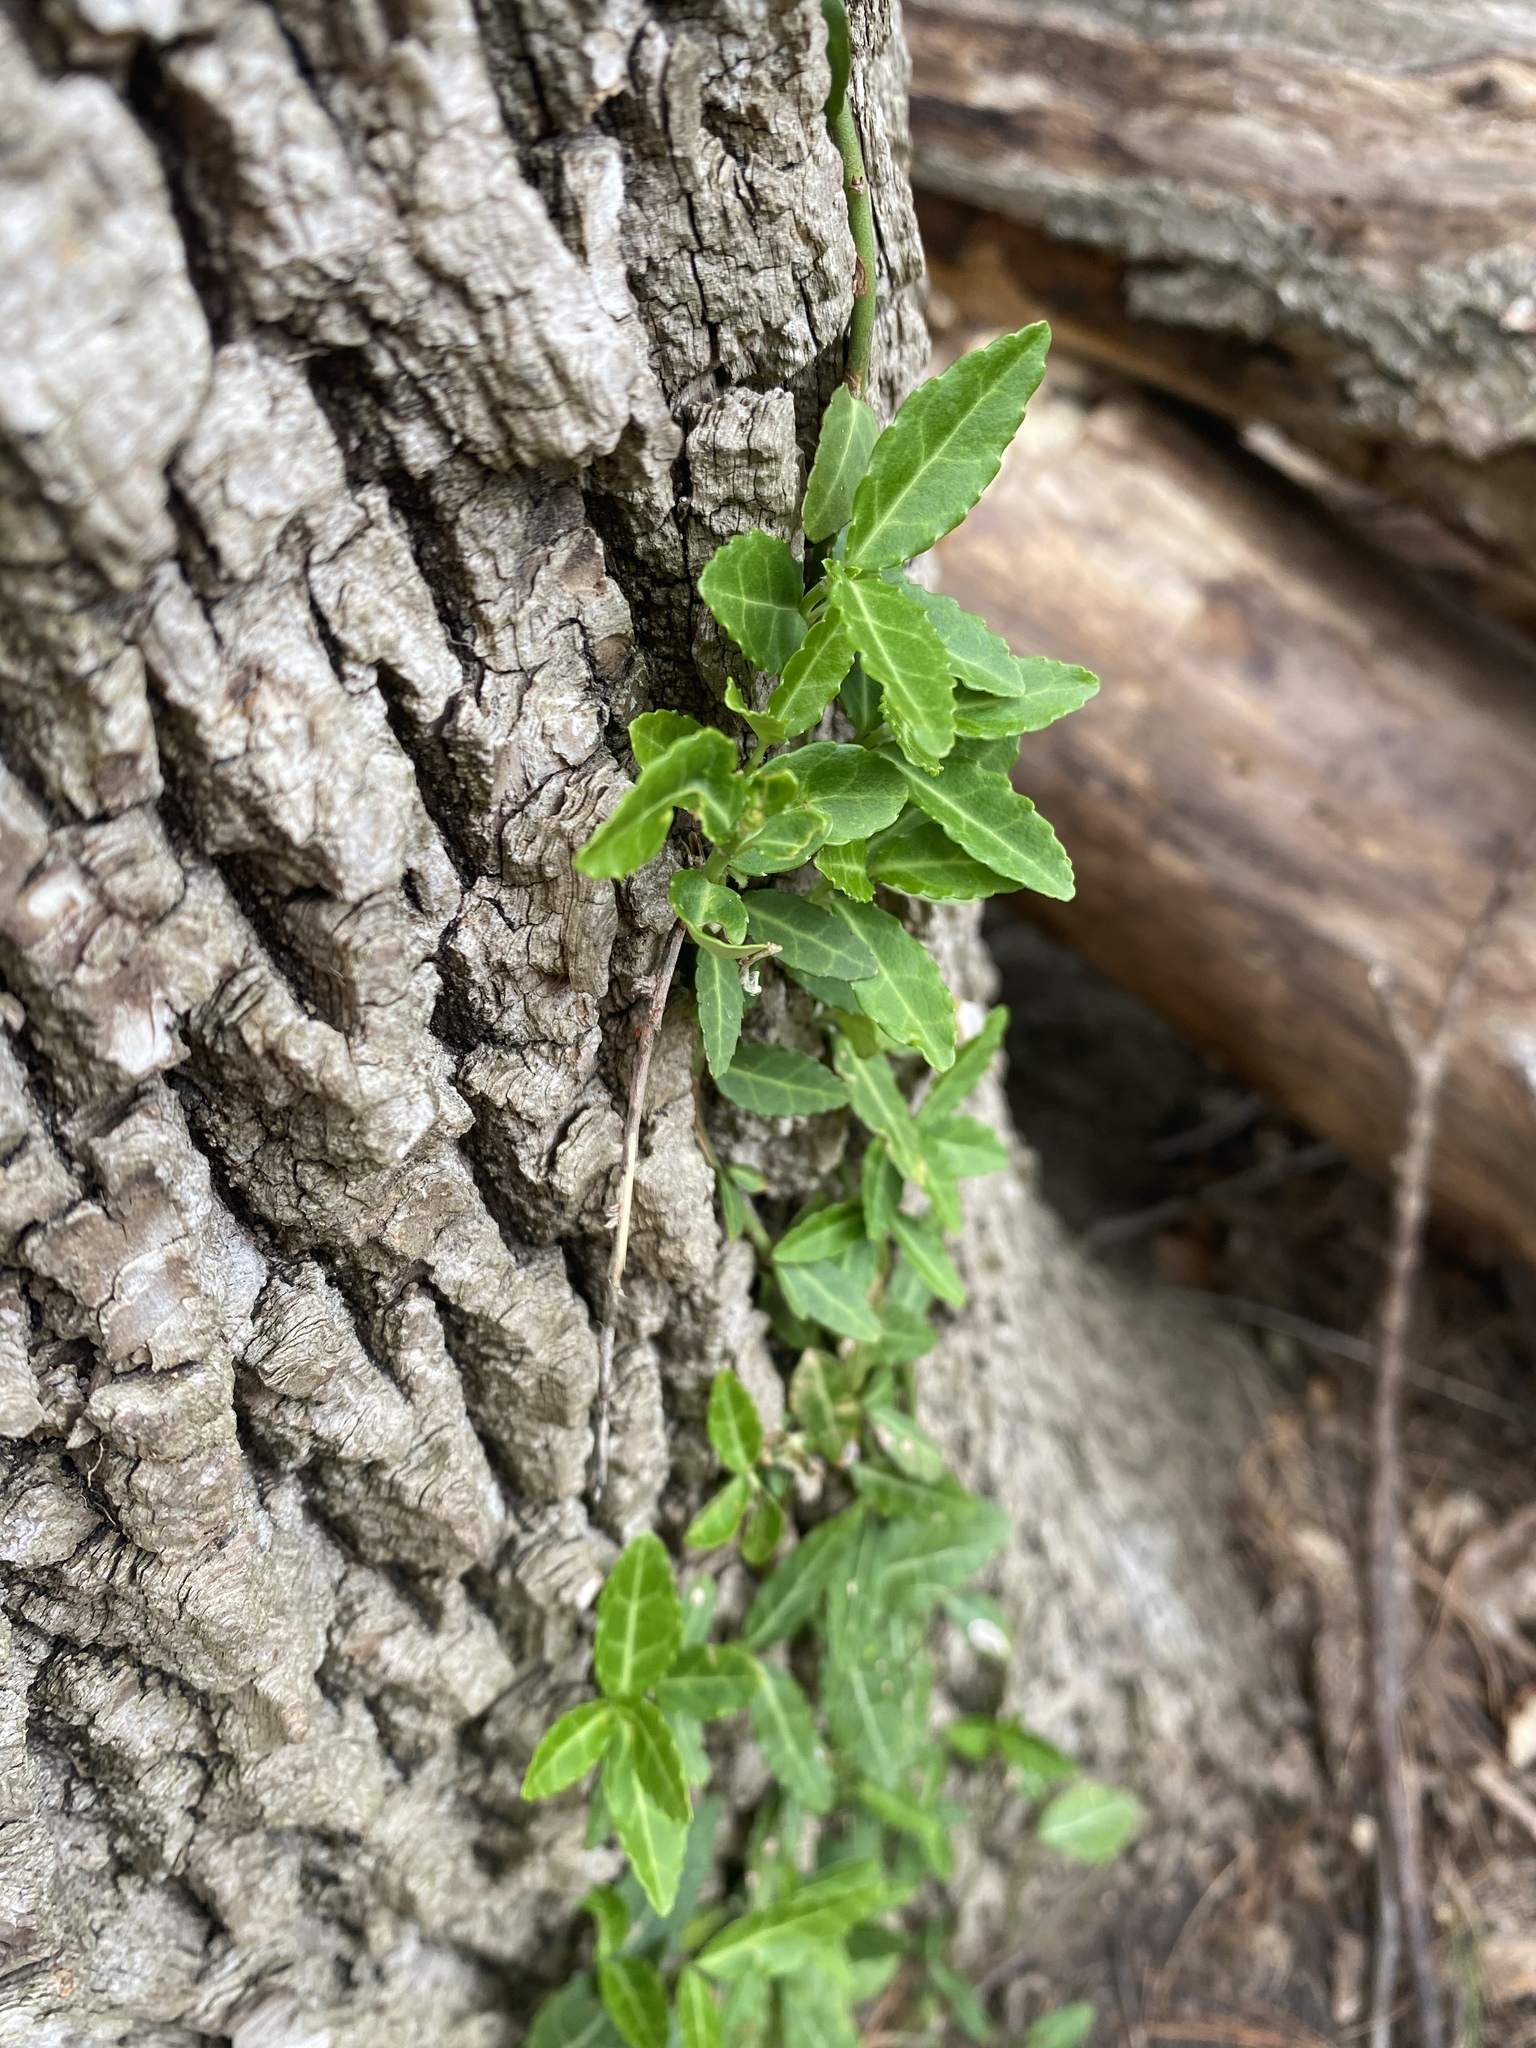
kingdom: Plantae
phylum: Tracheophyta
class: Magnoliopsida
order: Celastrales
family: Celastraceae
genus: Euonymus
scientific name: Euonymus fortunei
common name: Climbing euonymus
